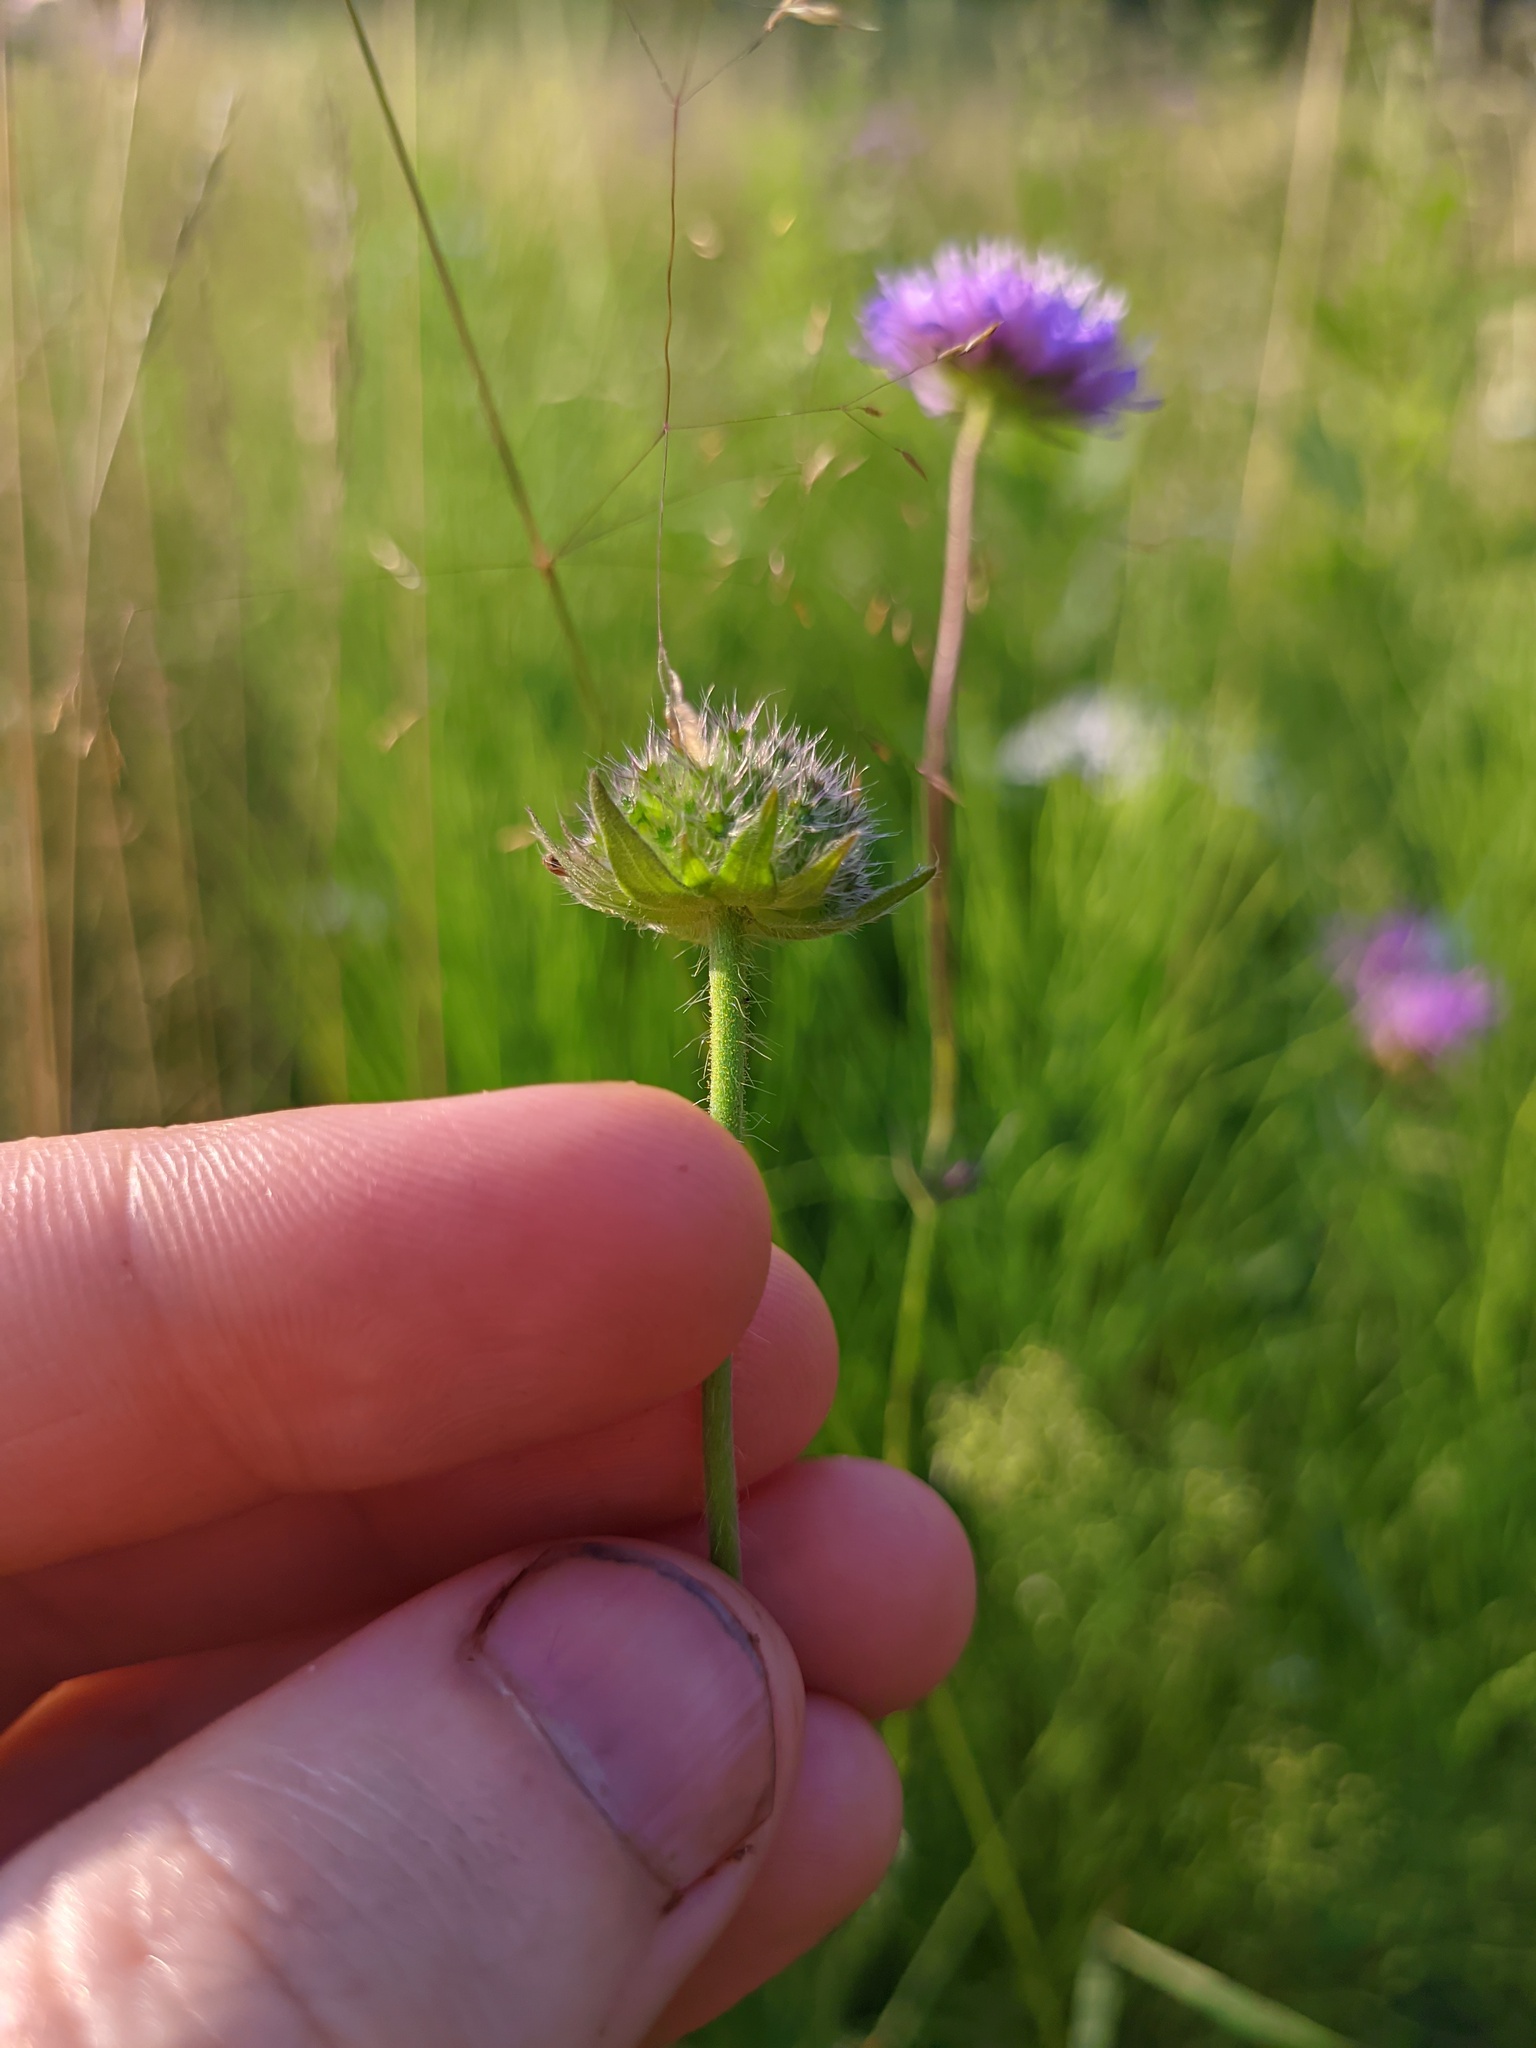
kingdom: Plantae
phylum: Tracheophyta
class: Magnoliopsida
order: Dipsacales
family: Caprifoliaceae
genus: Knautia
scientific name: Knautia arvensis
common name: Field scabiosa
